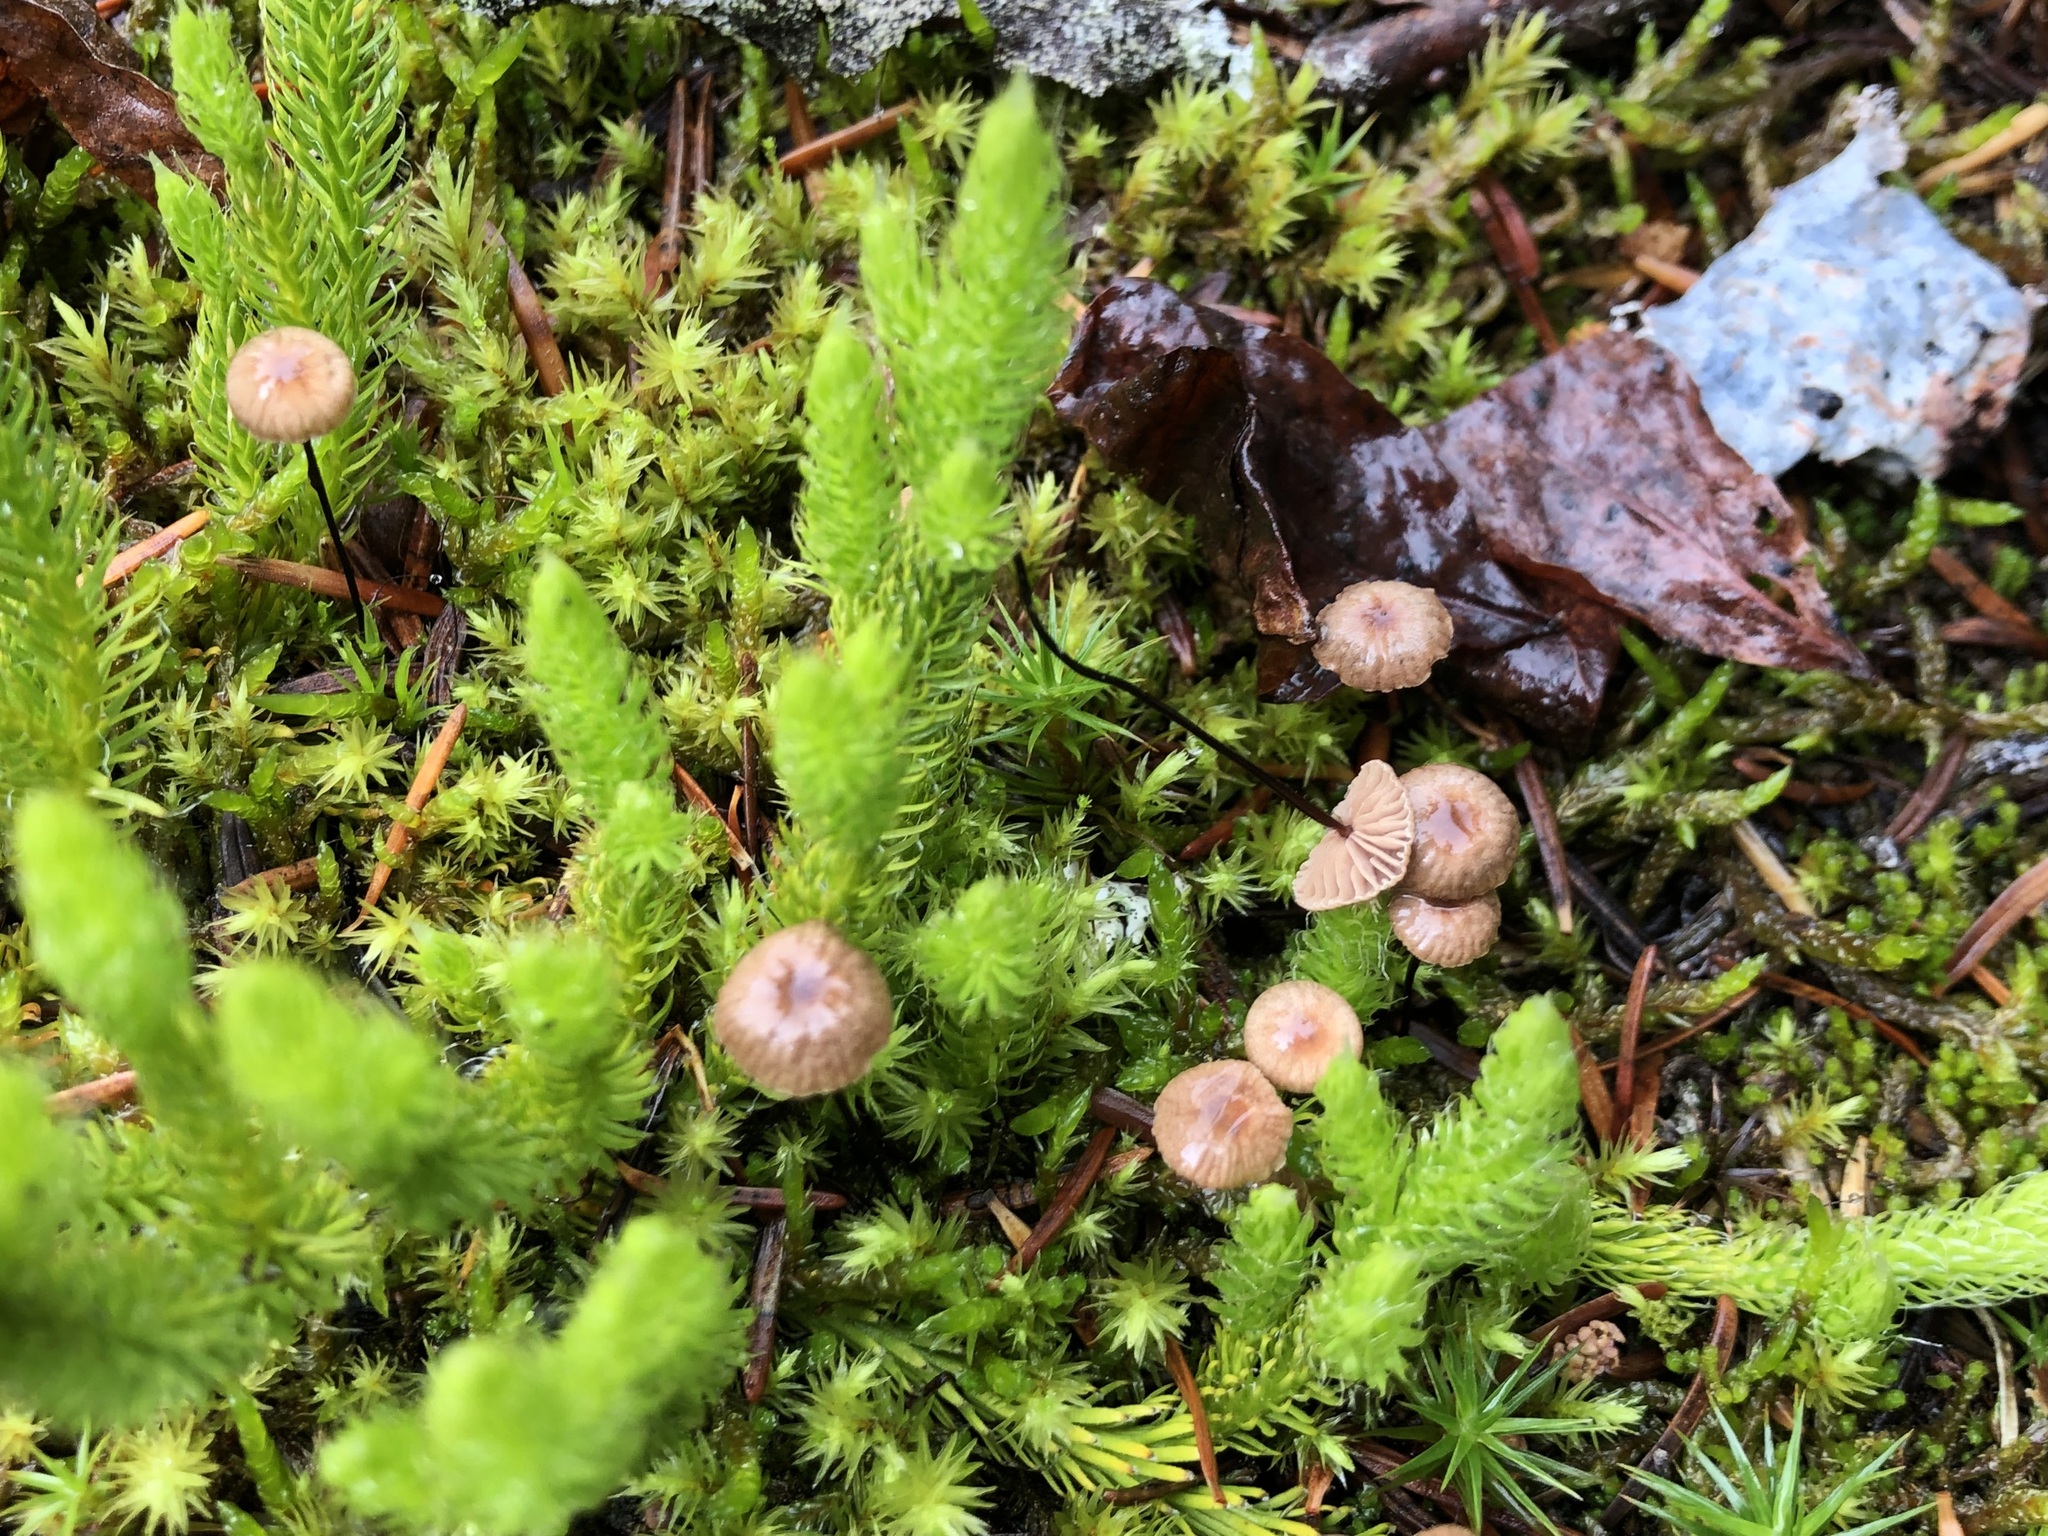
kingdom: Fungi
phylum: Basidiomycota
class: Agaricomycetes
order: Agaricales
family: Omphalotaceae
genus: Gymnopus
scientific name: Gymnopus androsaceus
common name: Horse-hair fungus
